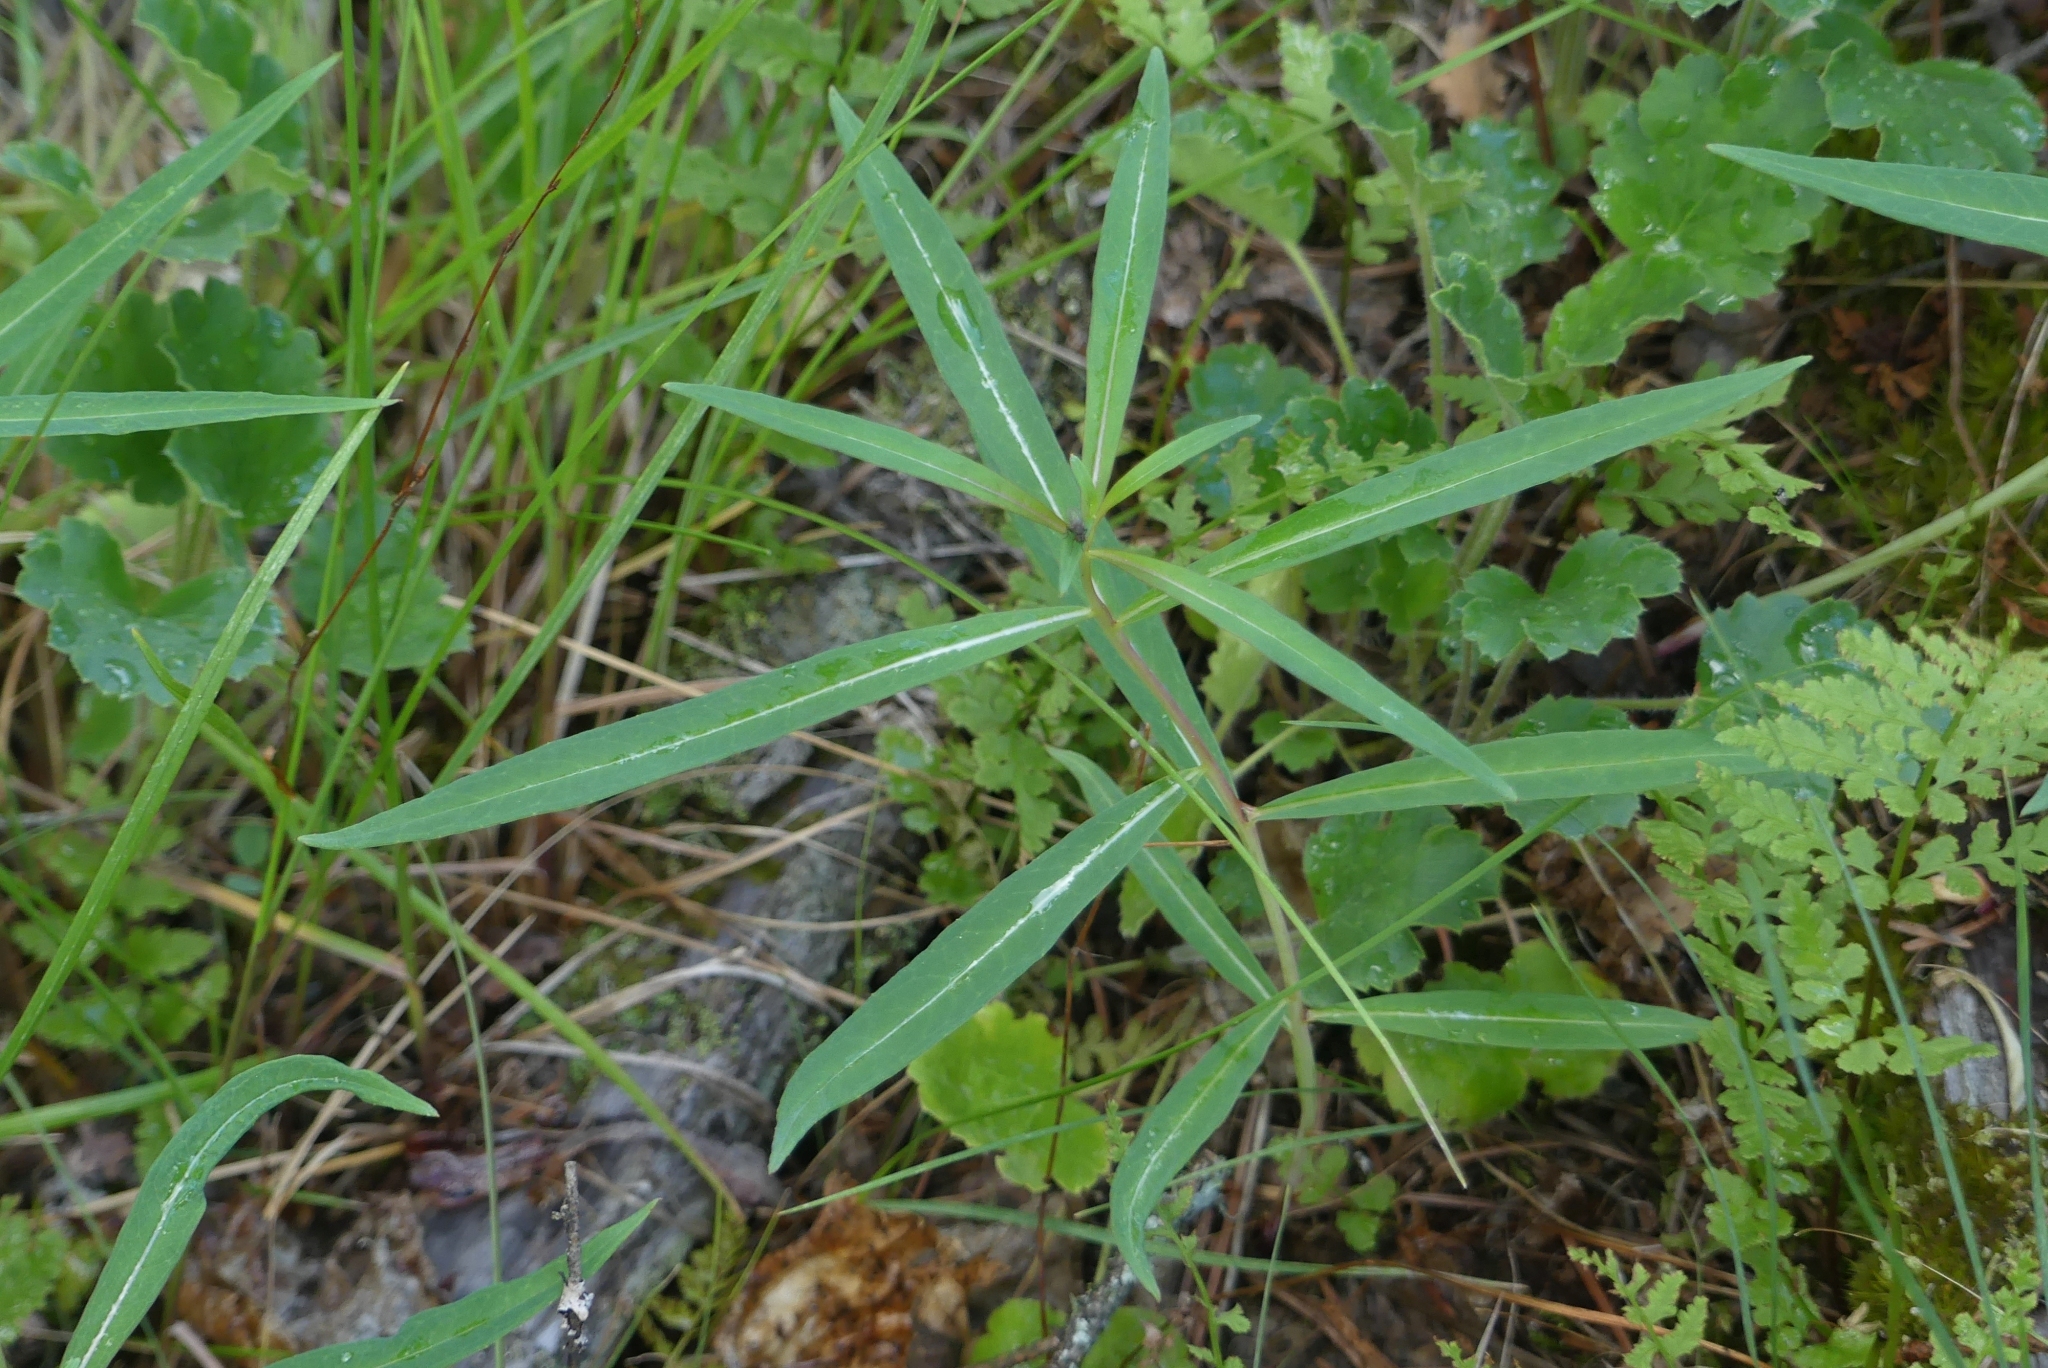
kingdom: Plantae
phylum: Tracheophyta
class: Magnoliopsida
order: Myrtales
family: Onagraceae
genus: Chamaenerion
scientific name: Chamaenerion angustifolium
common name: Fireweed
